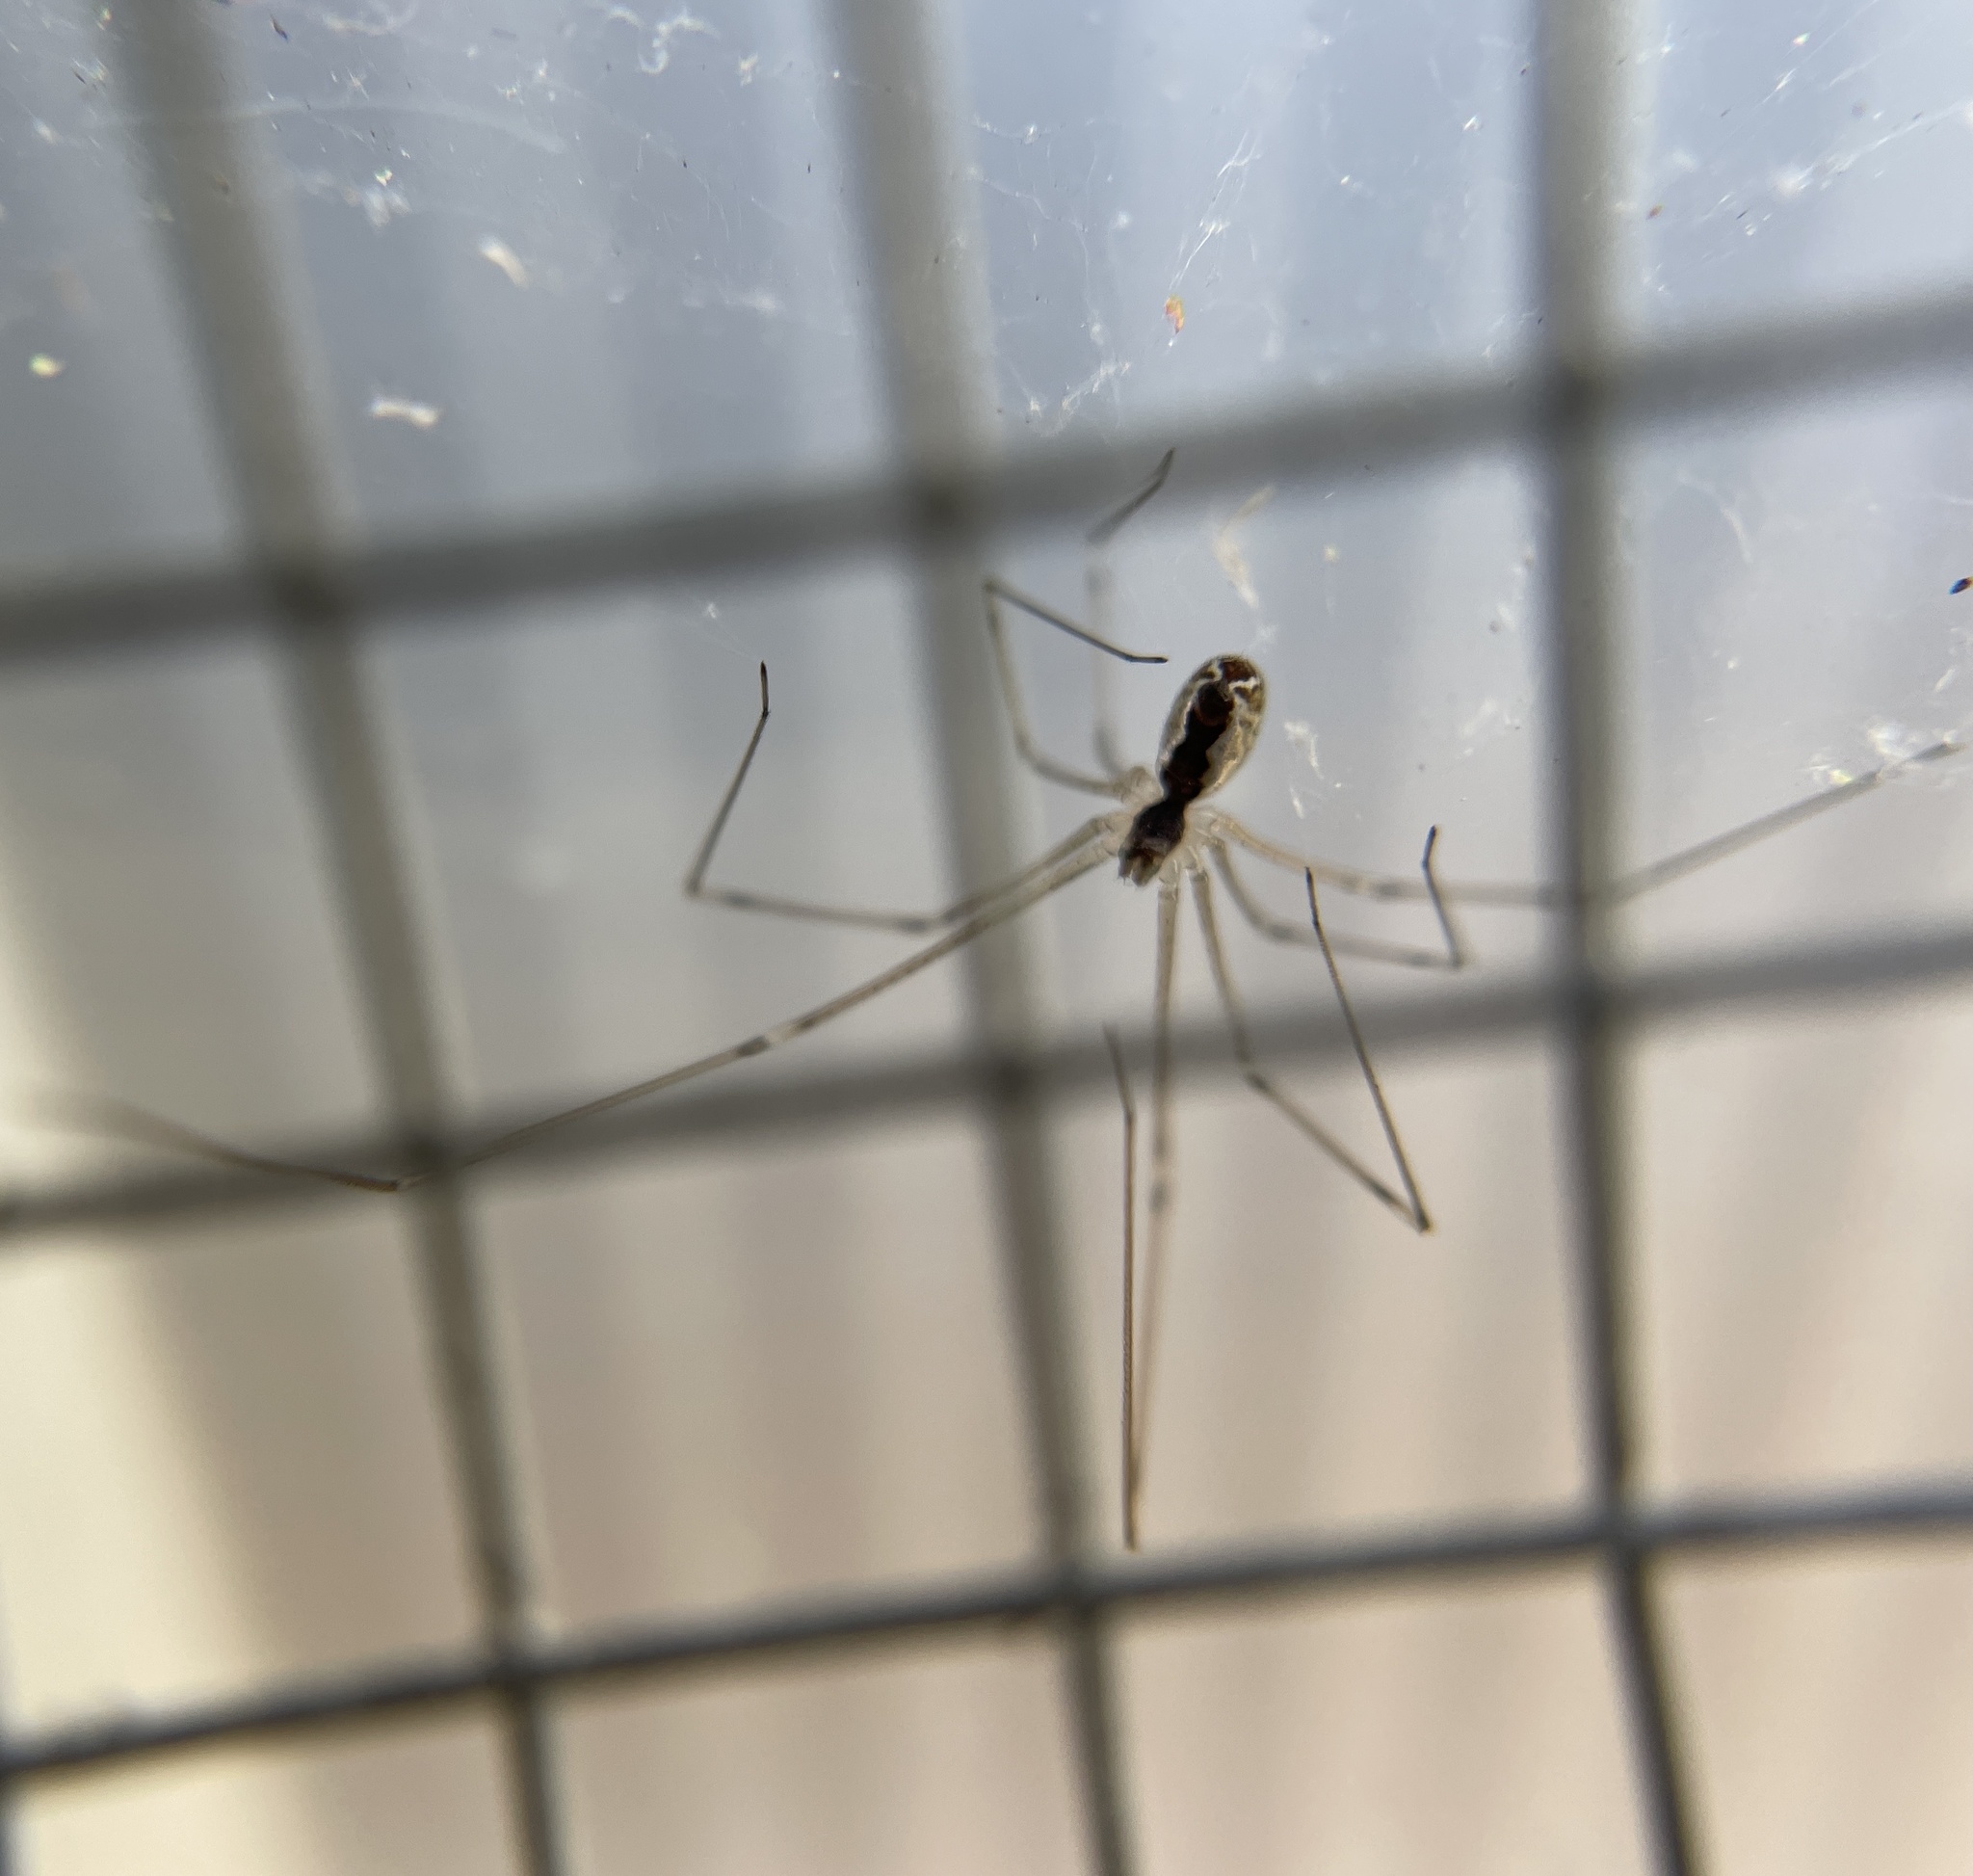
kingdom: Animalia
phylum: Arthropoda
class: Arachnida
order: Araneae
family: Pholcidae
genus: Holocnemus
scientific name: Holocnemus pluchei
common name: Marbled cellar spider
